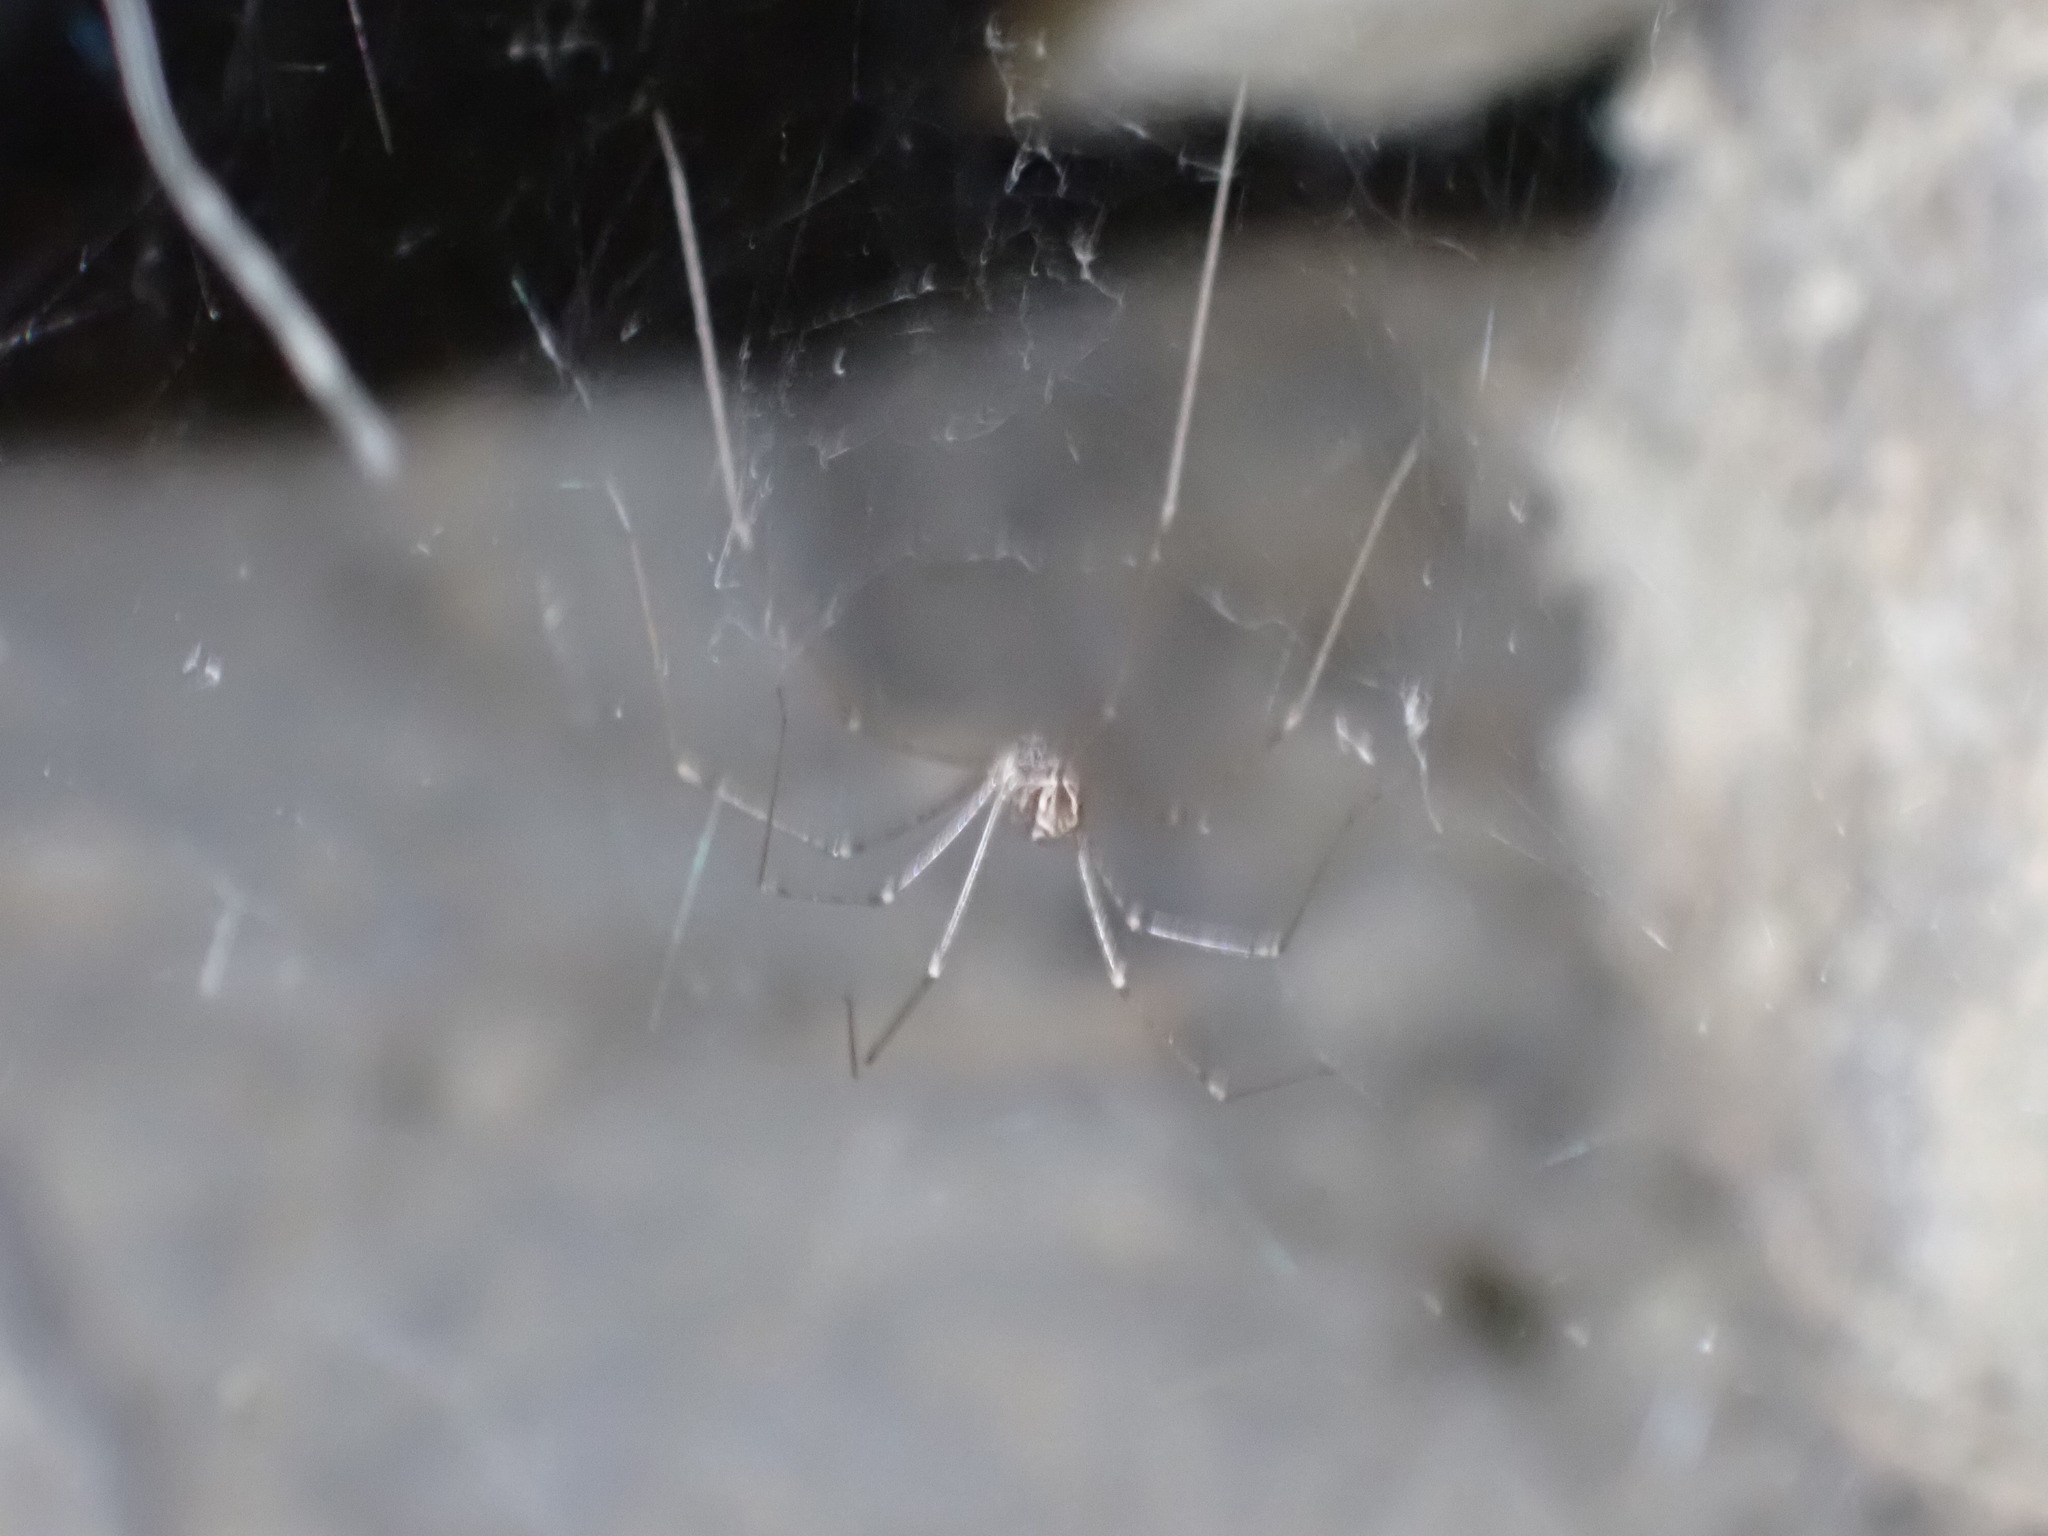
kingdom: Animalia
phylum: Arthropoda
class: Arachnida
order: Araneae
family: Pholcidae
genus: Holocnemus
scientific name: Holocnemus pluchei
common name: Marbled cellar spider
